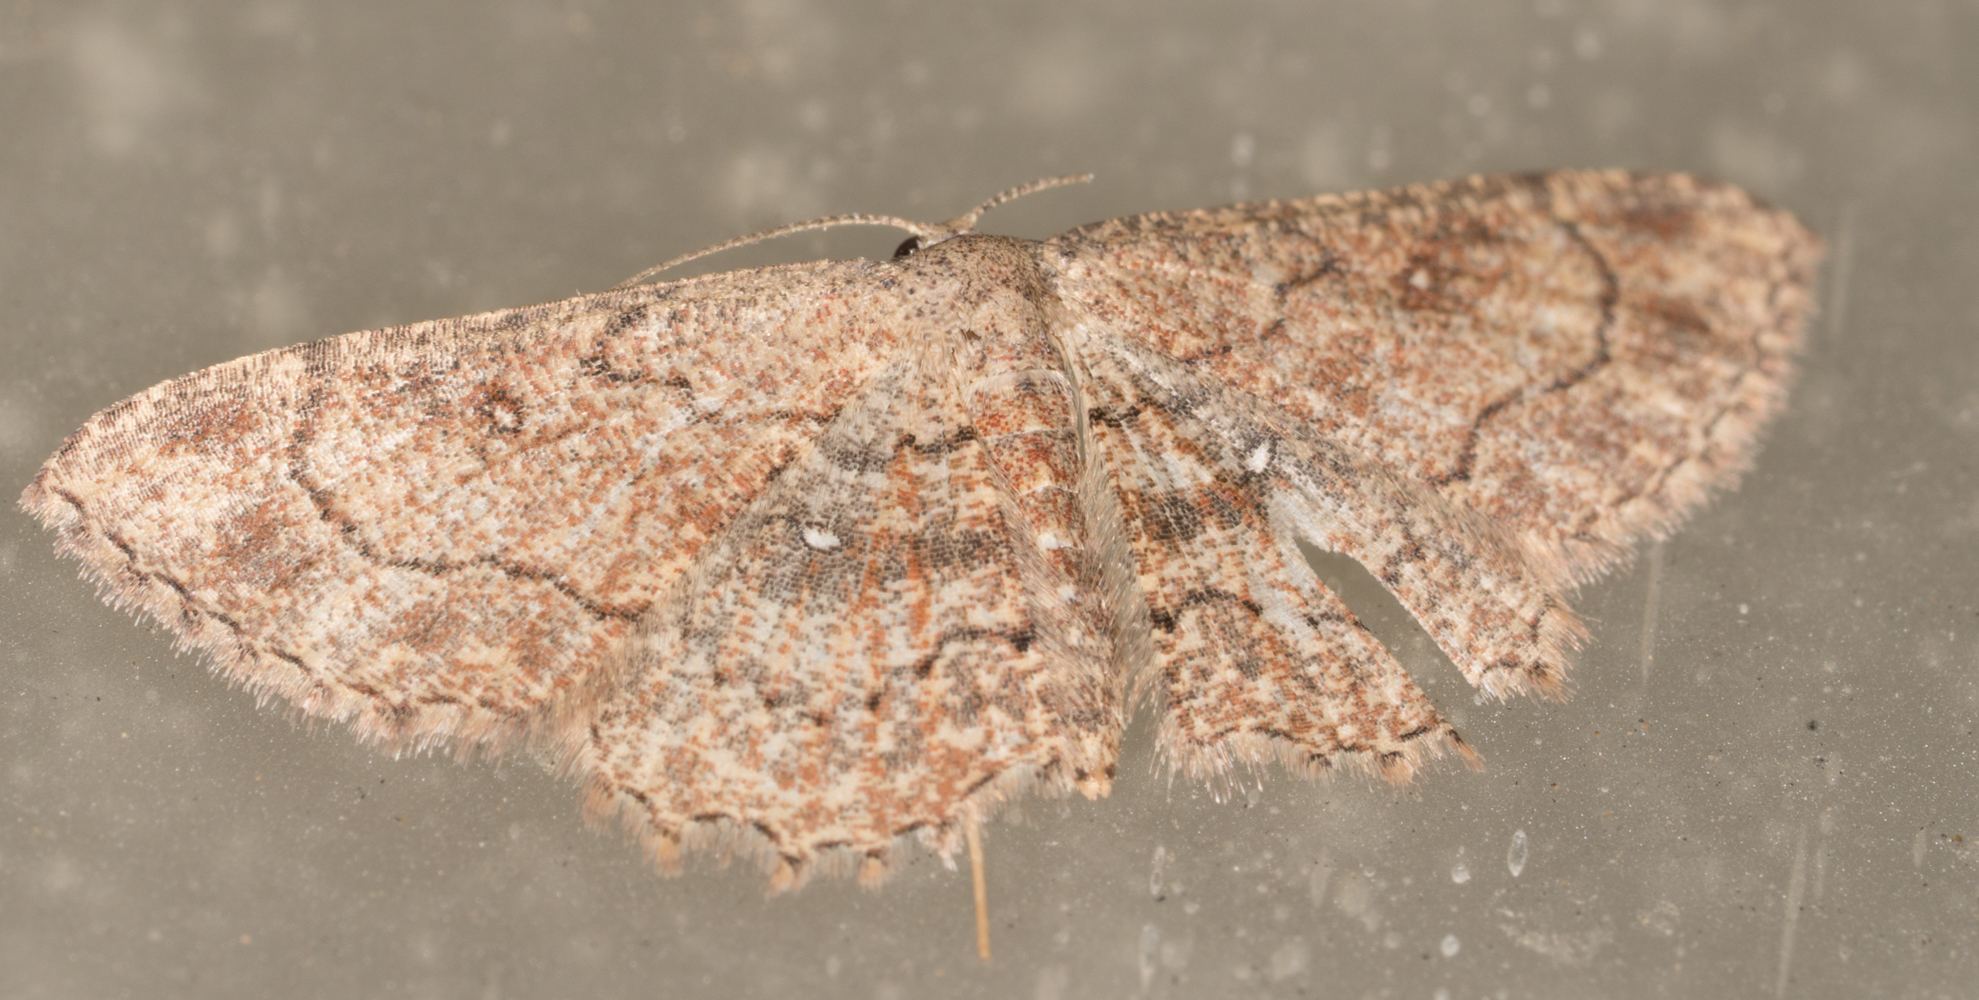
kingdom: Animalia
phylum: Arthropoda
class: Insecta
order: Lepidoptera
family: Geometridae
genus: Cyclophora
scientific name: Cyclophora nanaria
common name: Cankerworm
